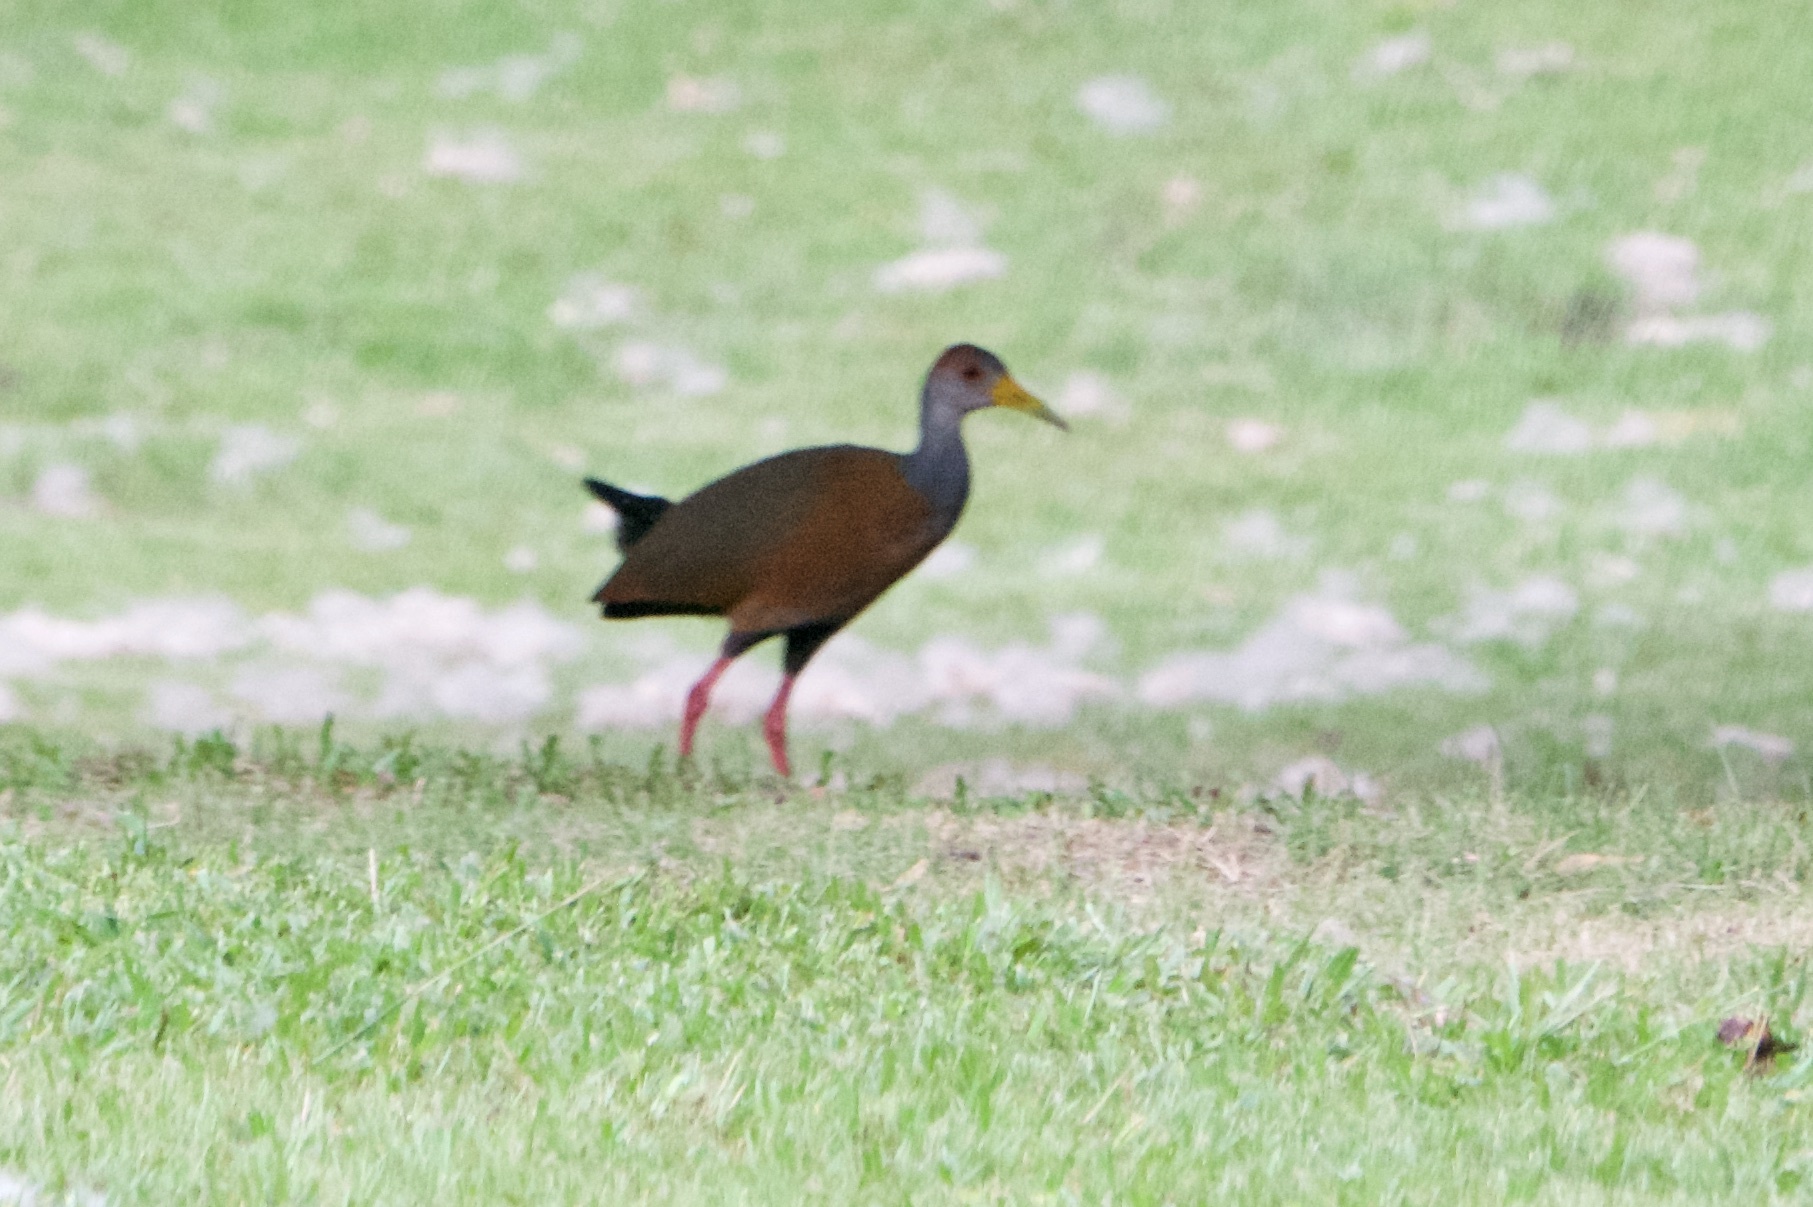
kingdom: Animalia
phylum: Chordata
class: Aves
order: Gruiformes
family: Rallidae
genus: Aramides
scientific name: Aramides albiventris
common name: Russet-naped wood-rail
